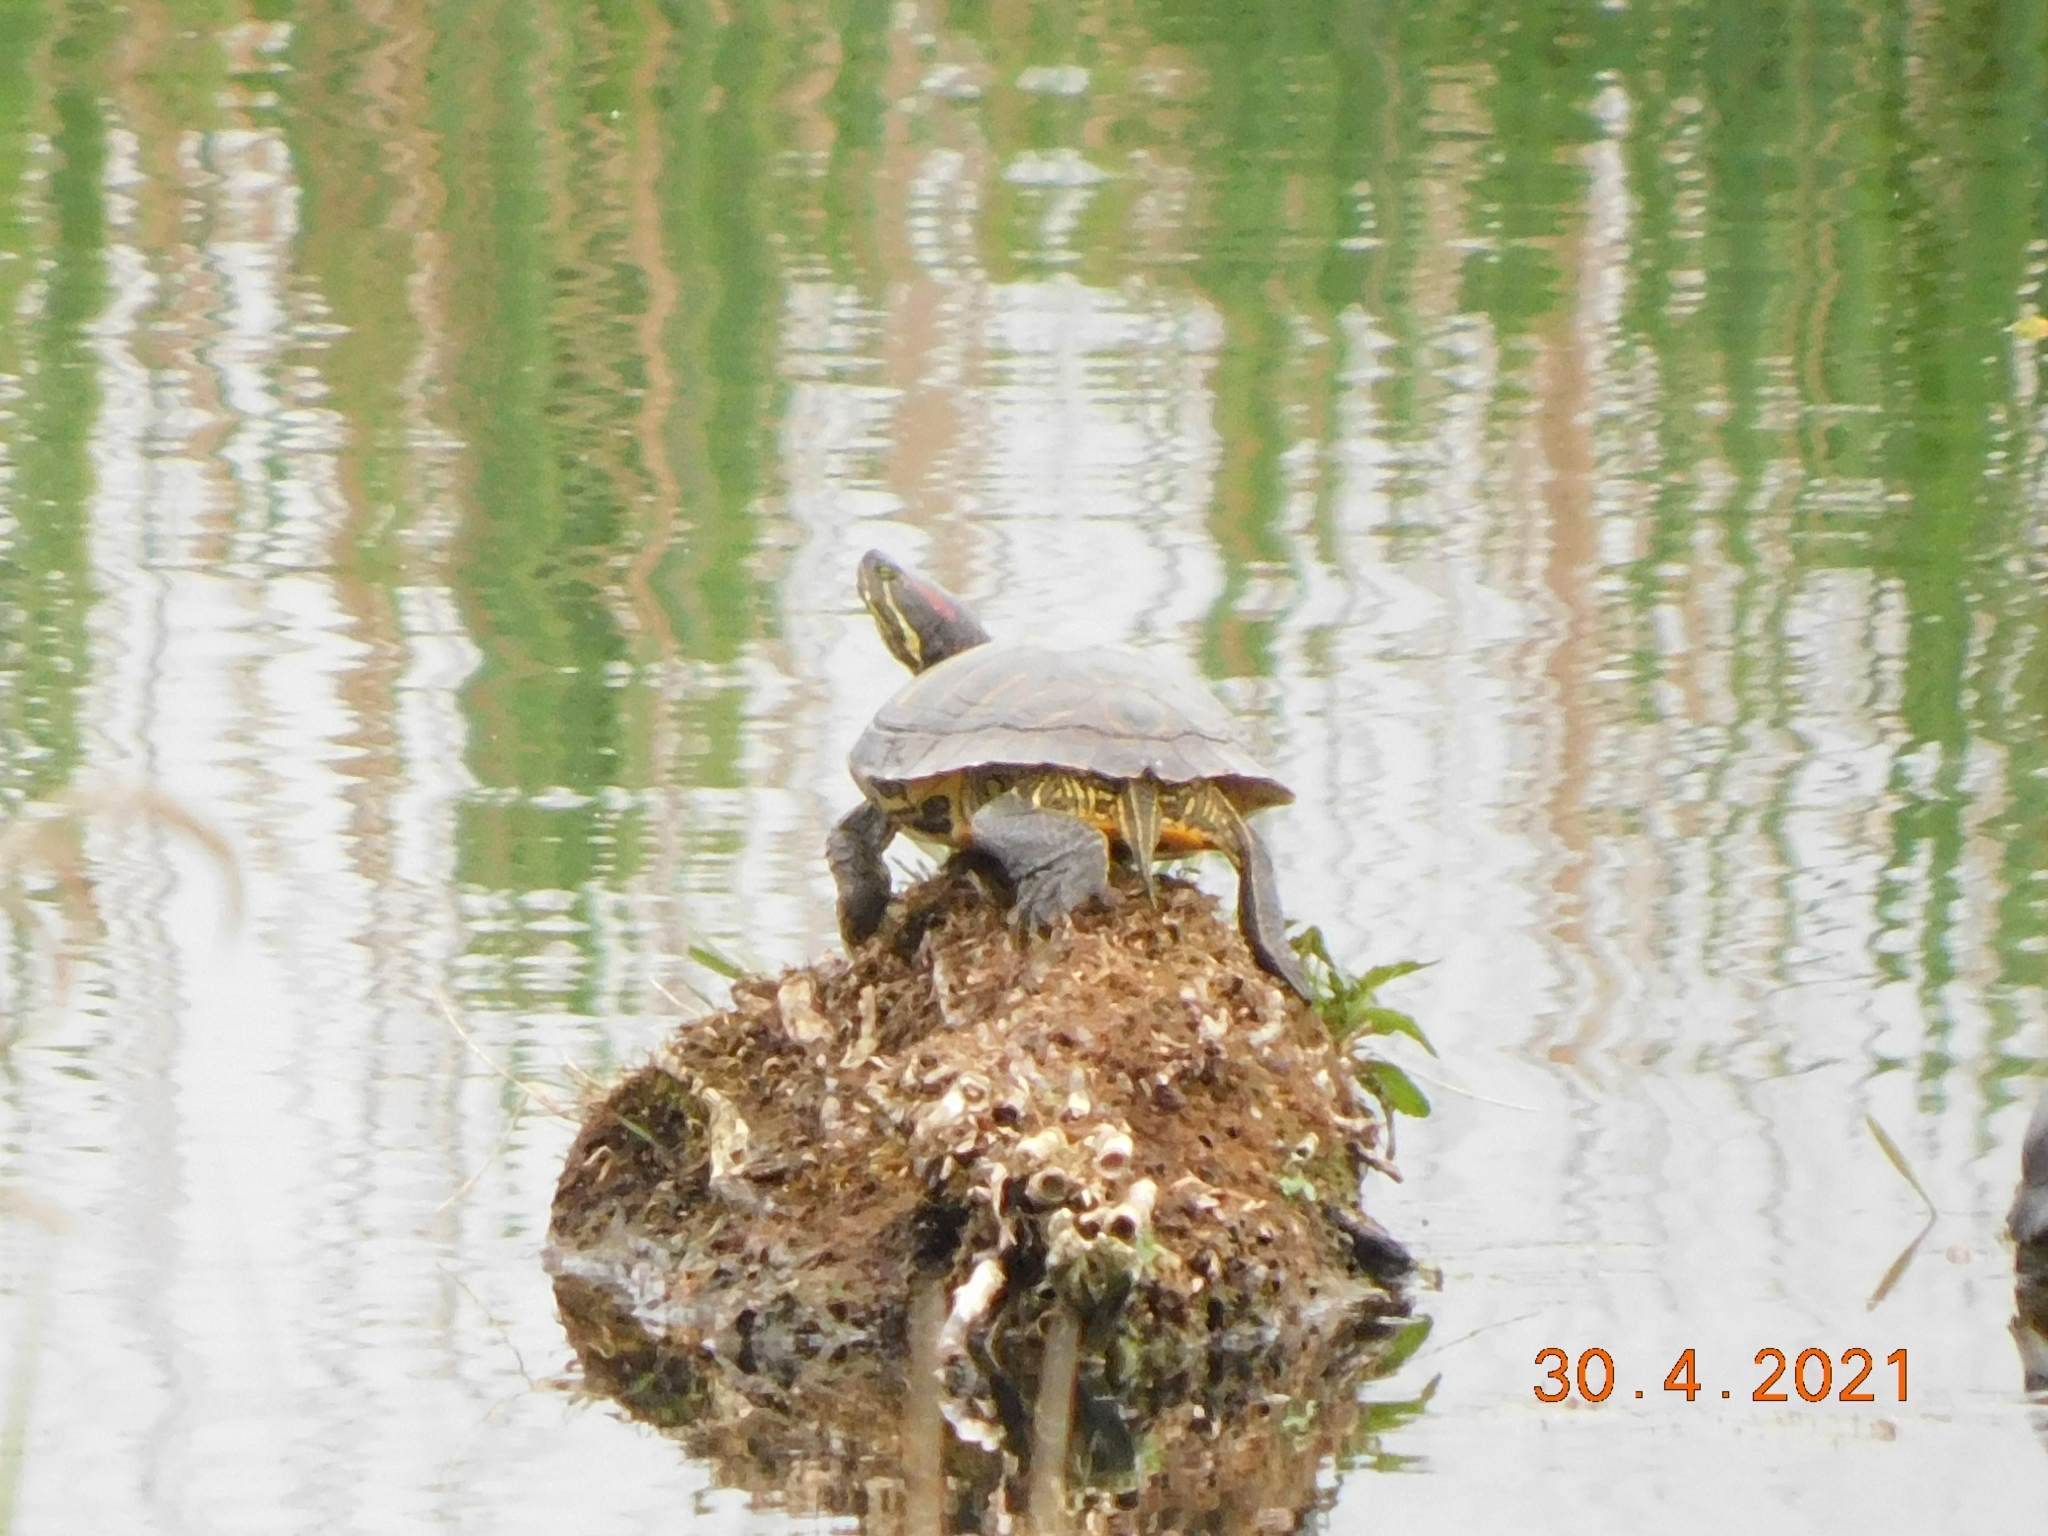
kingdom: Animalia
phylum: Chordata
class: Testudines
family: Emydidae
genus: Trachemys
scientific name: Trachemys scripta
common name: Slider
